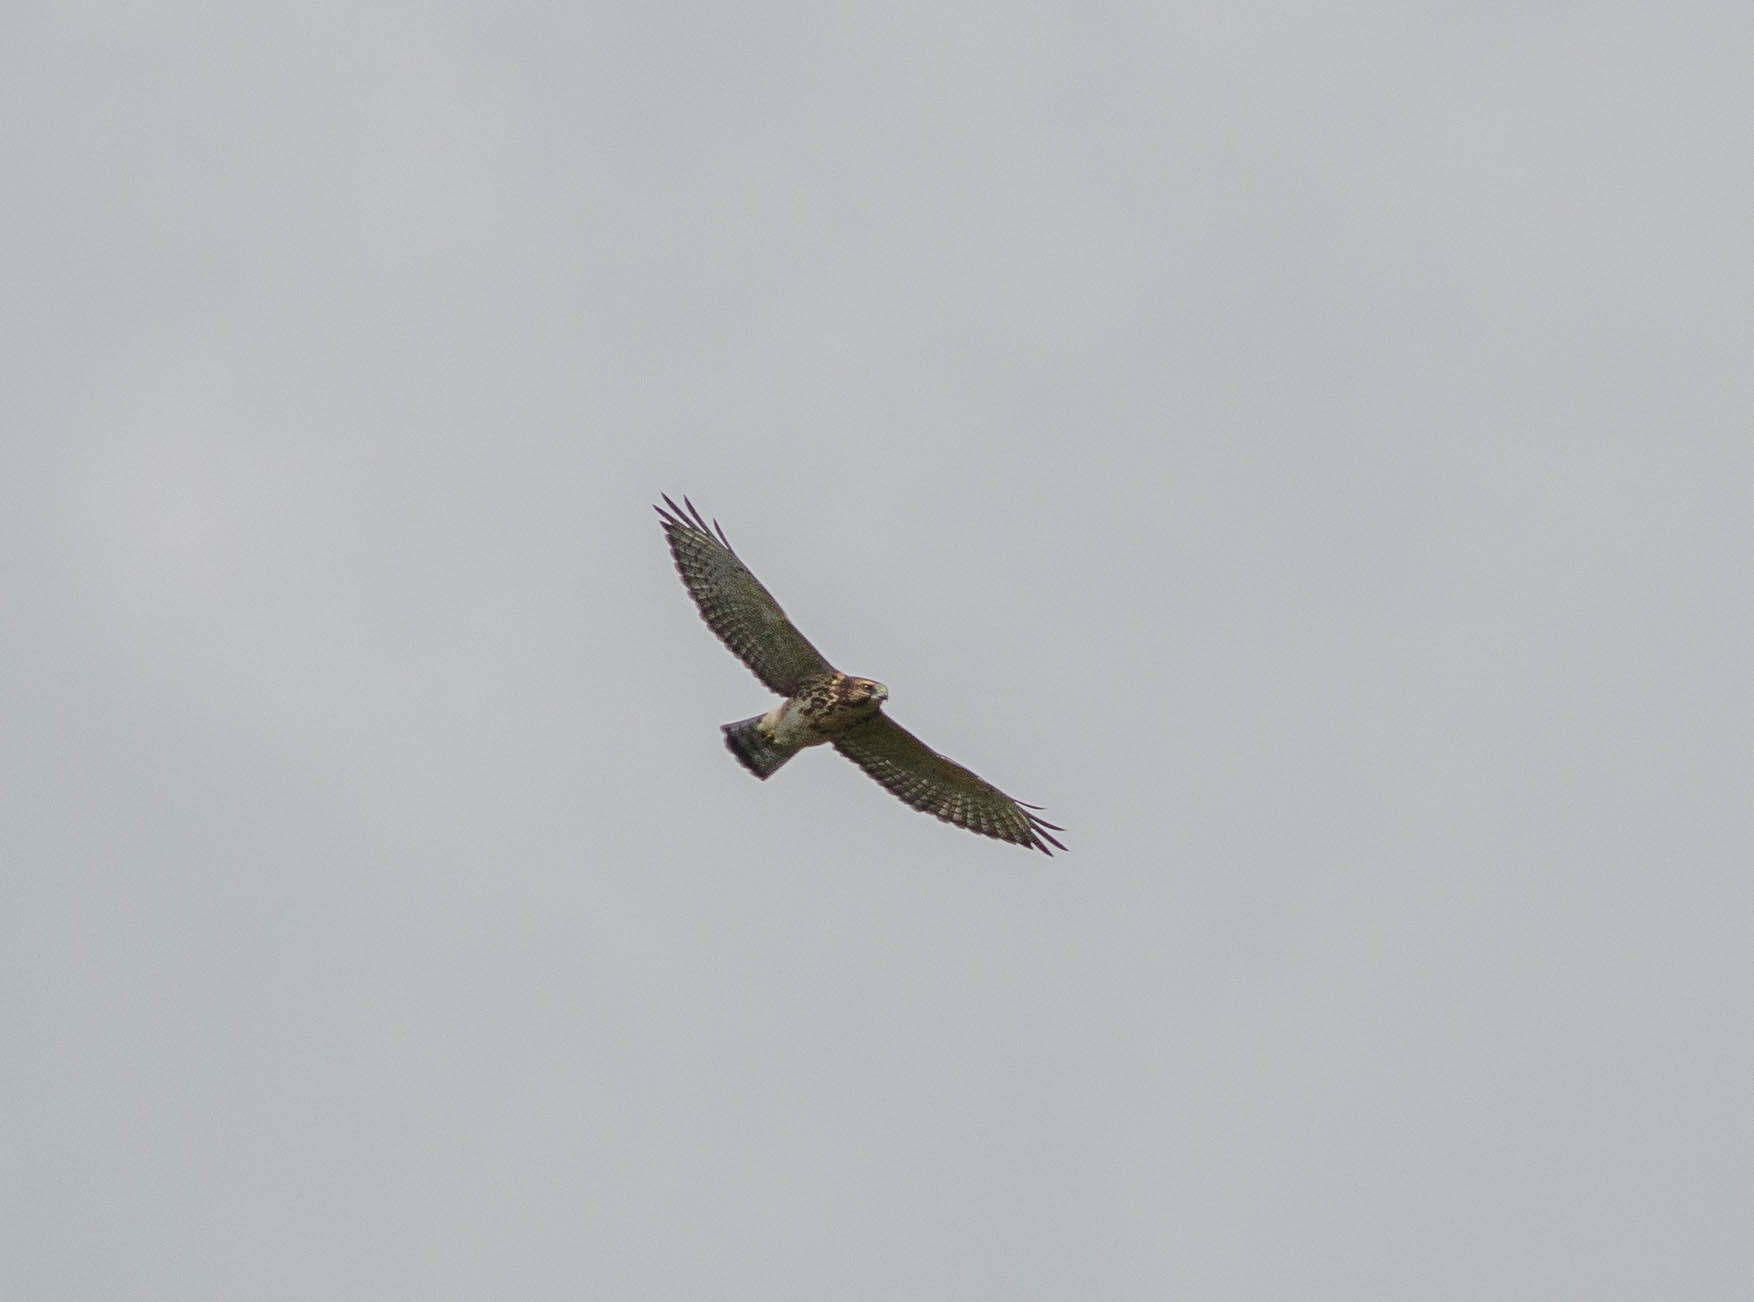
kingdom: Animalia
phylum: Chordata
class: Aves
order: Accipitriformes
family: Accipitridae
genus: Buteo
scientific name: Buteo platypterus
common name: Broad-winged hawk
